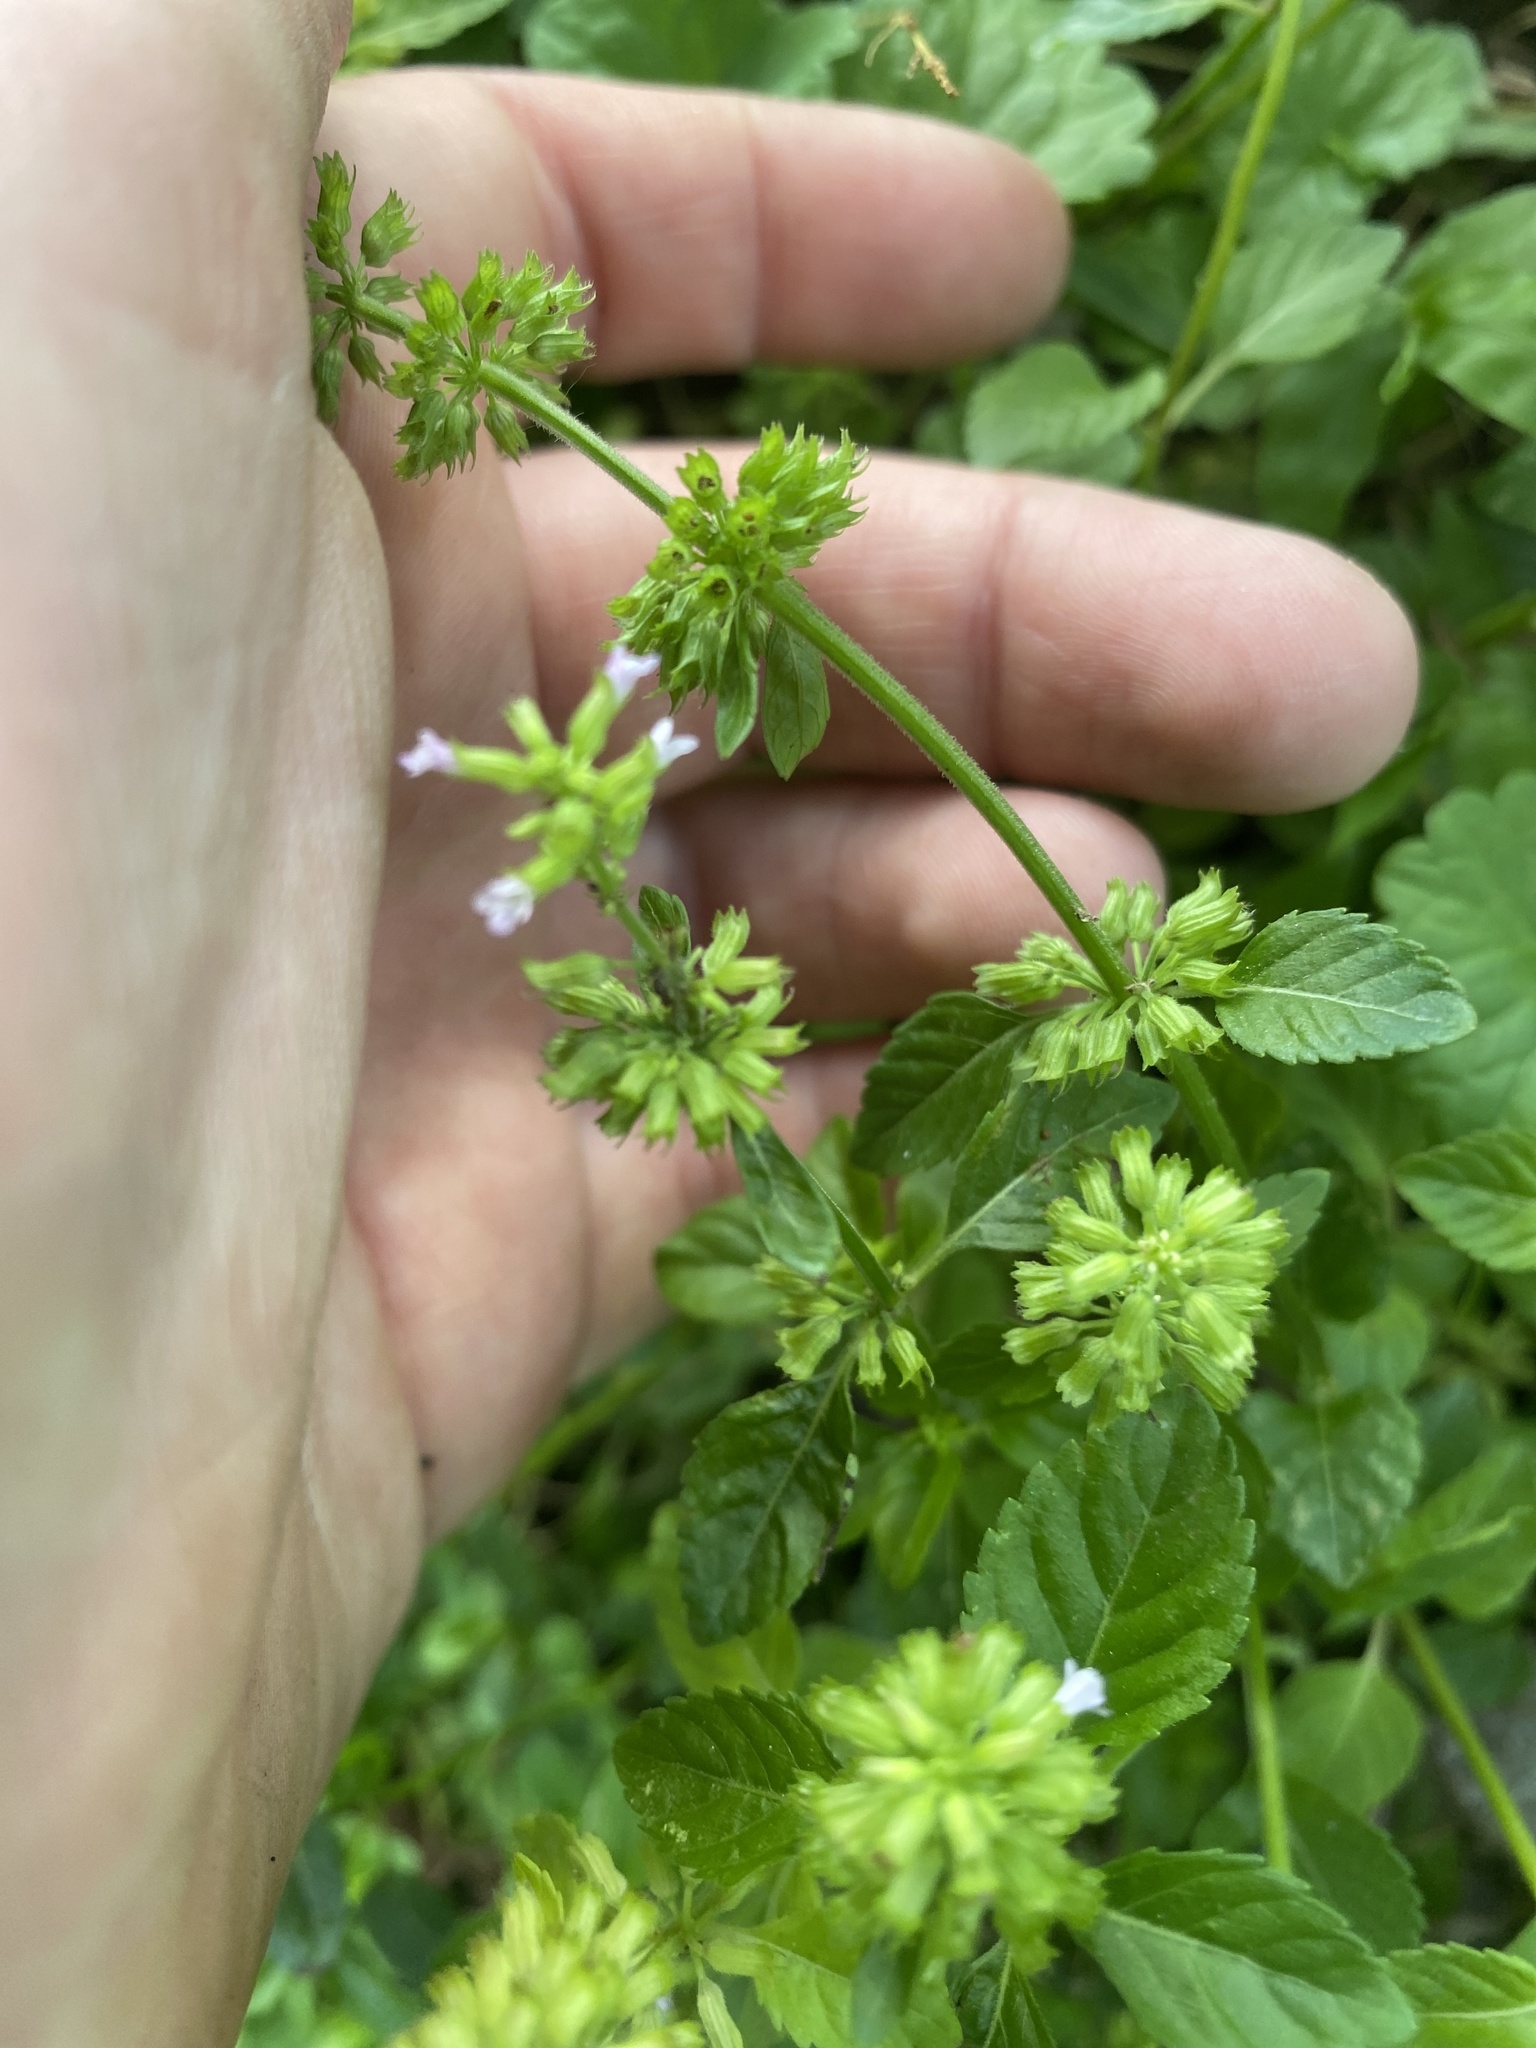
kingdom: Plantae
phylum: Tracheophyta
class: Magnoliopsida
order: Lamiales
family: Lamiaceae
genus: Clinopodium
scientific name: Clinopodium gracile
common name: Slender wild basil
